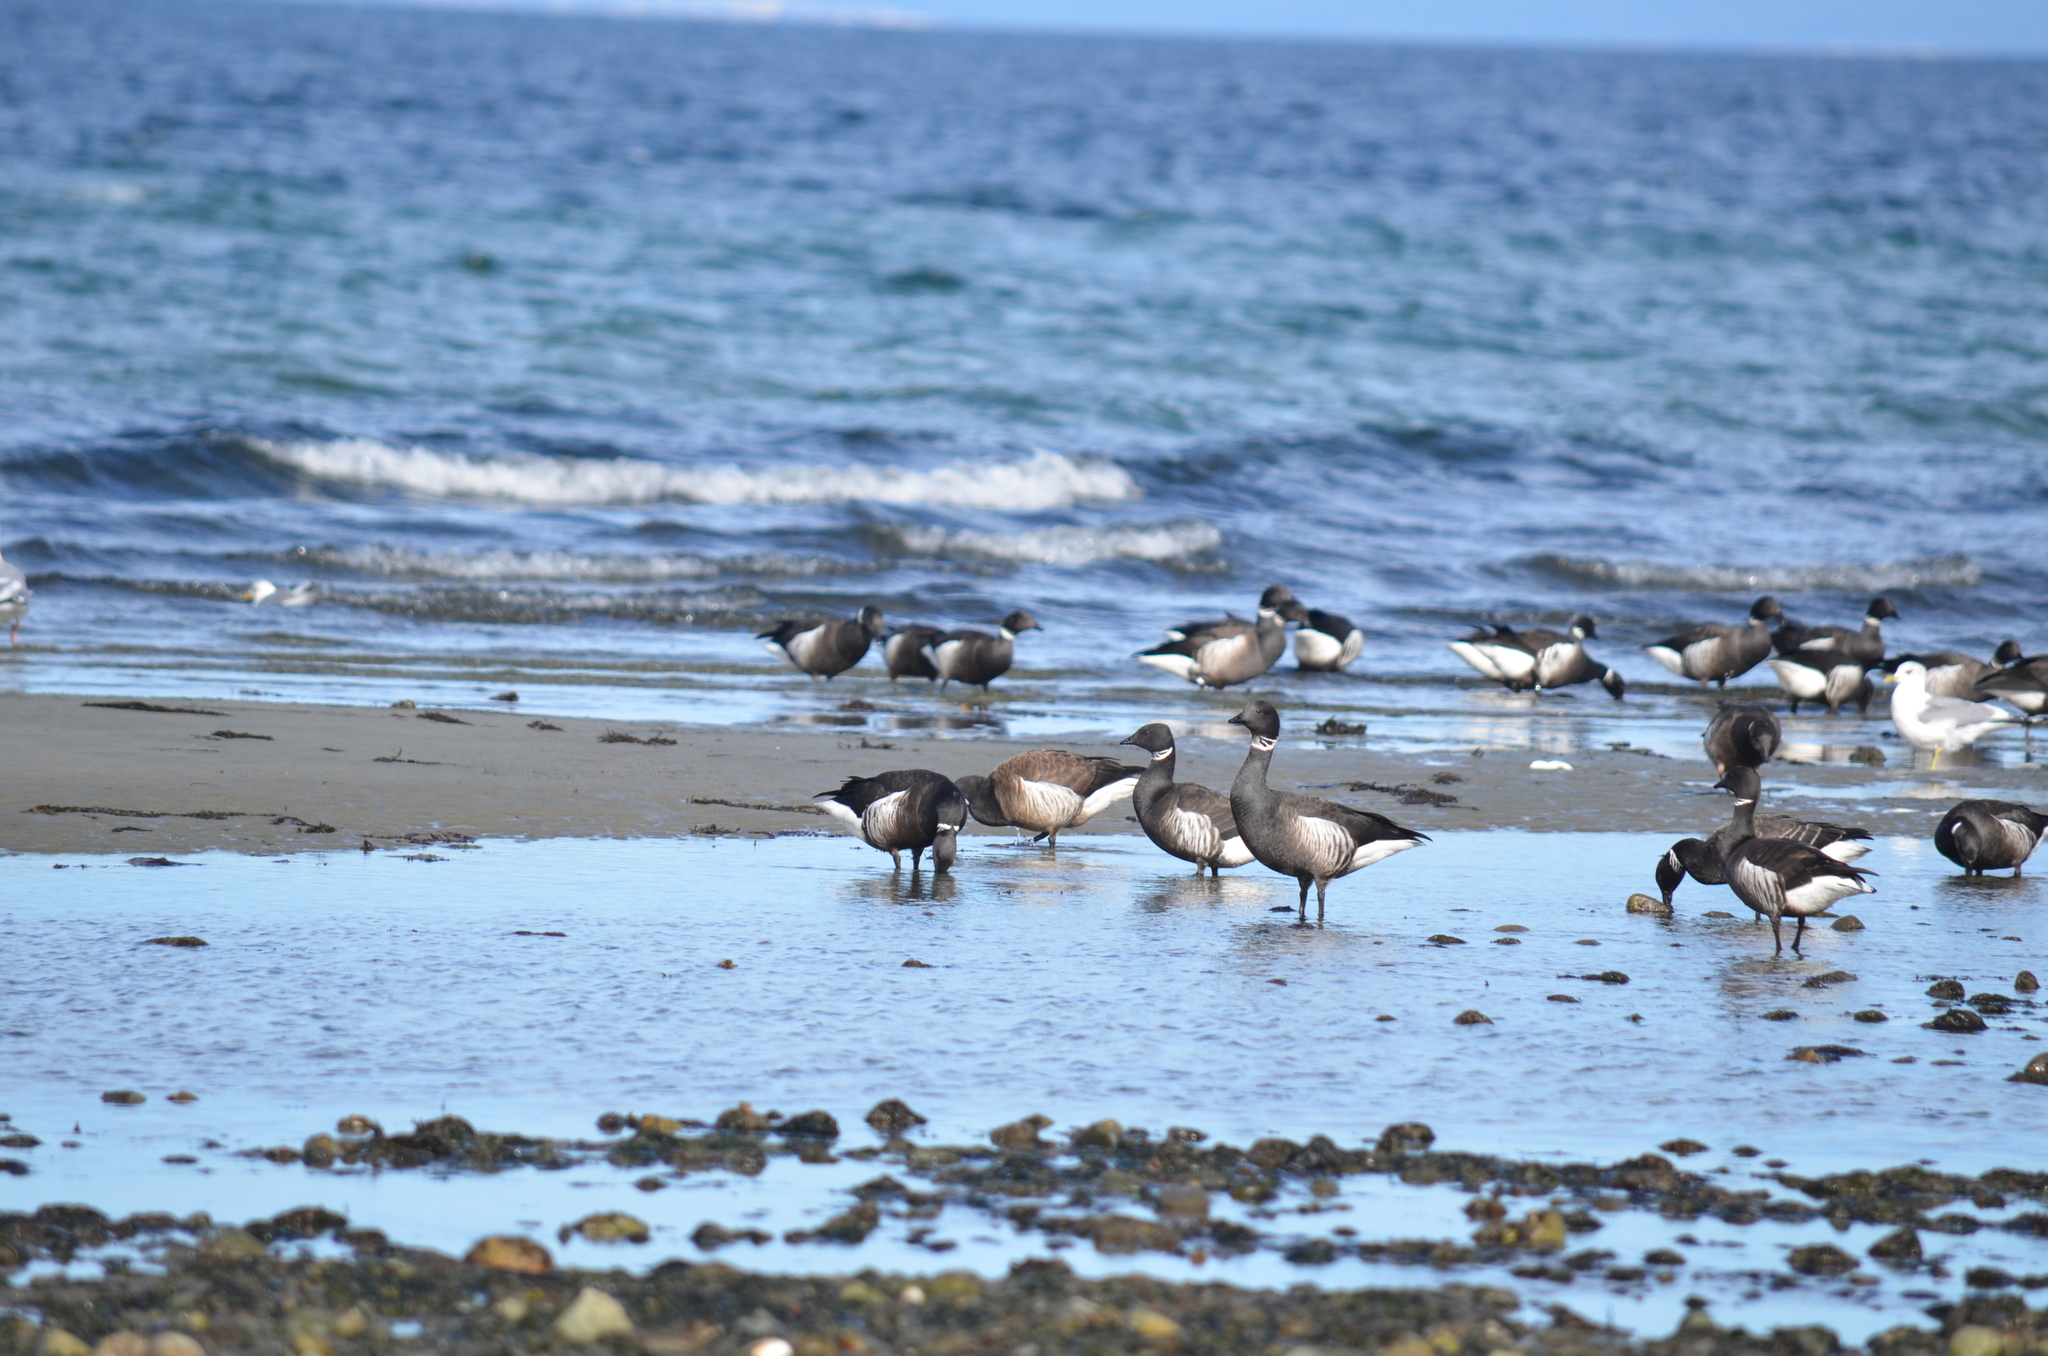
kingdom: Animalia
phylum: Chordata
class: Aves
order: Anseriformes
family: Anatidae
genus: Branta
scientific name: Branta bernicla
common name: Brant goose
